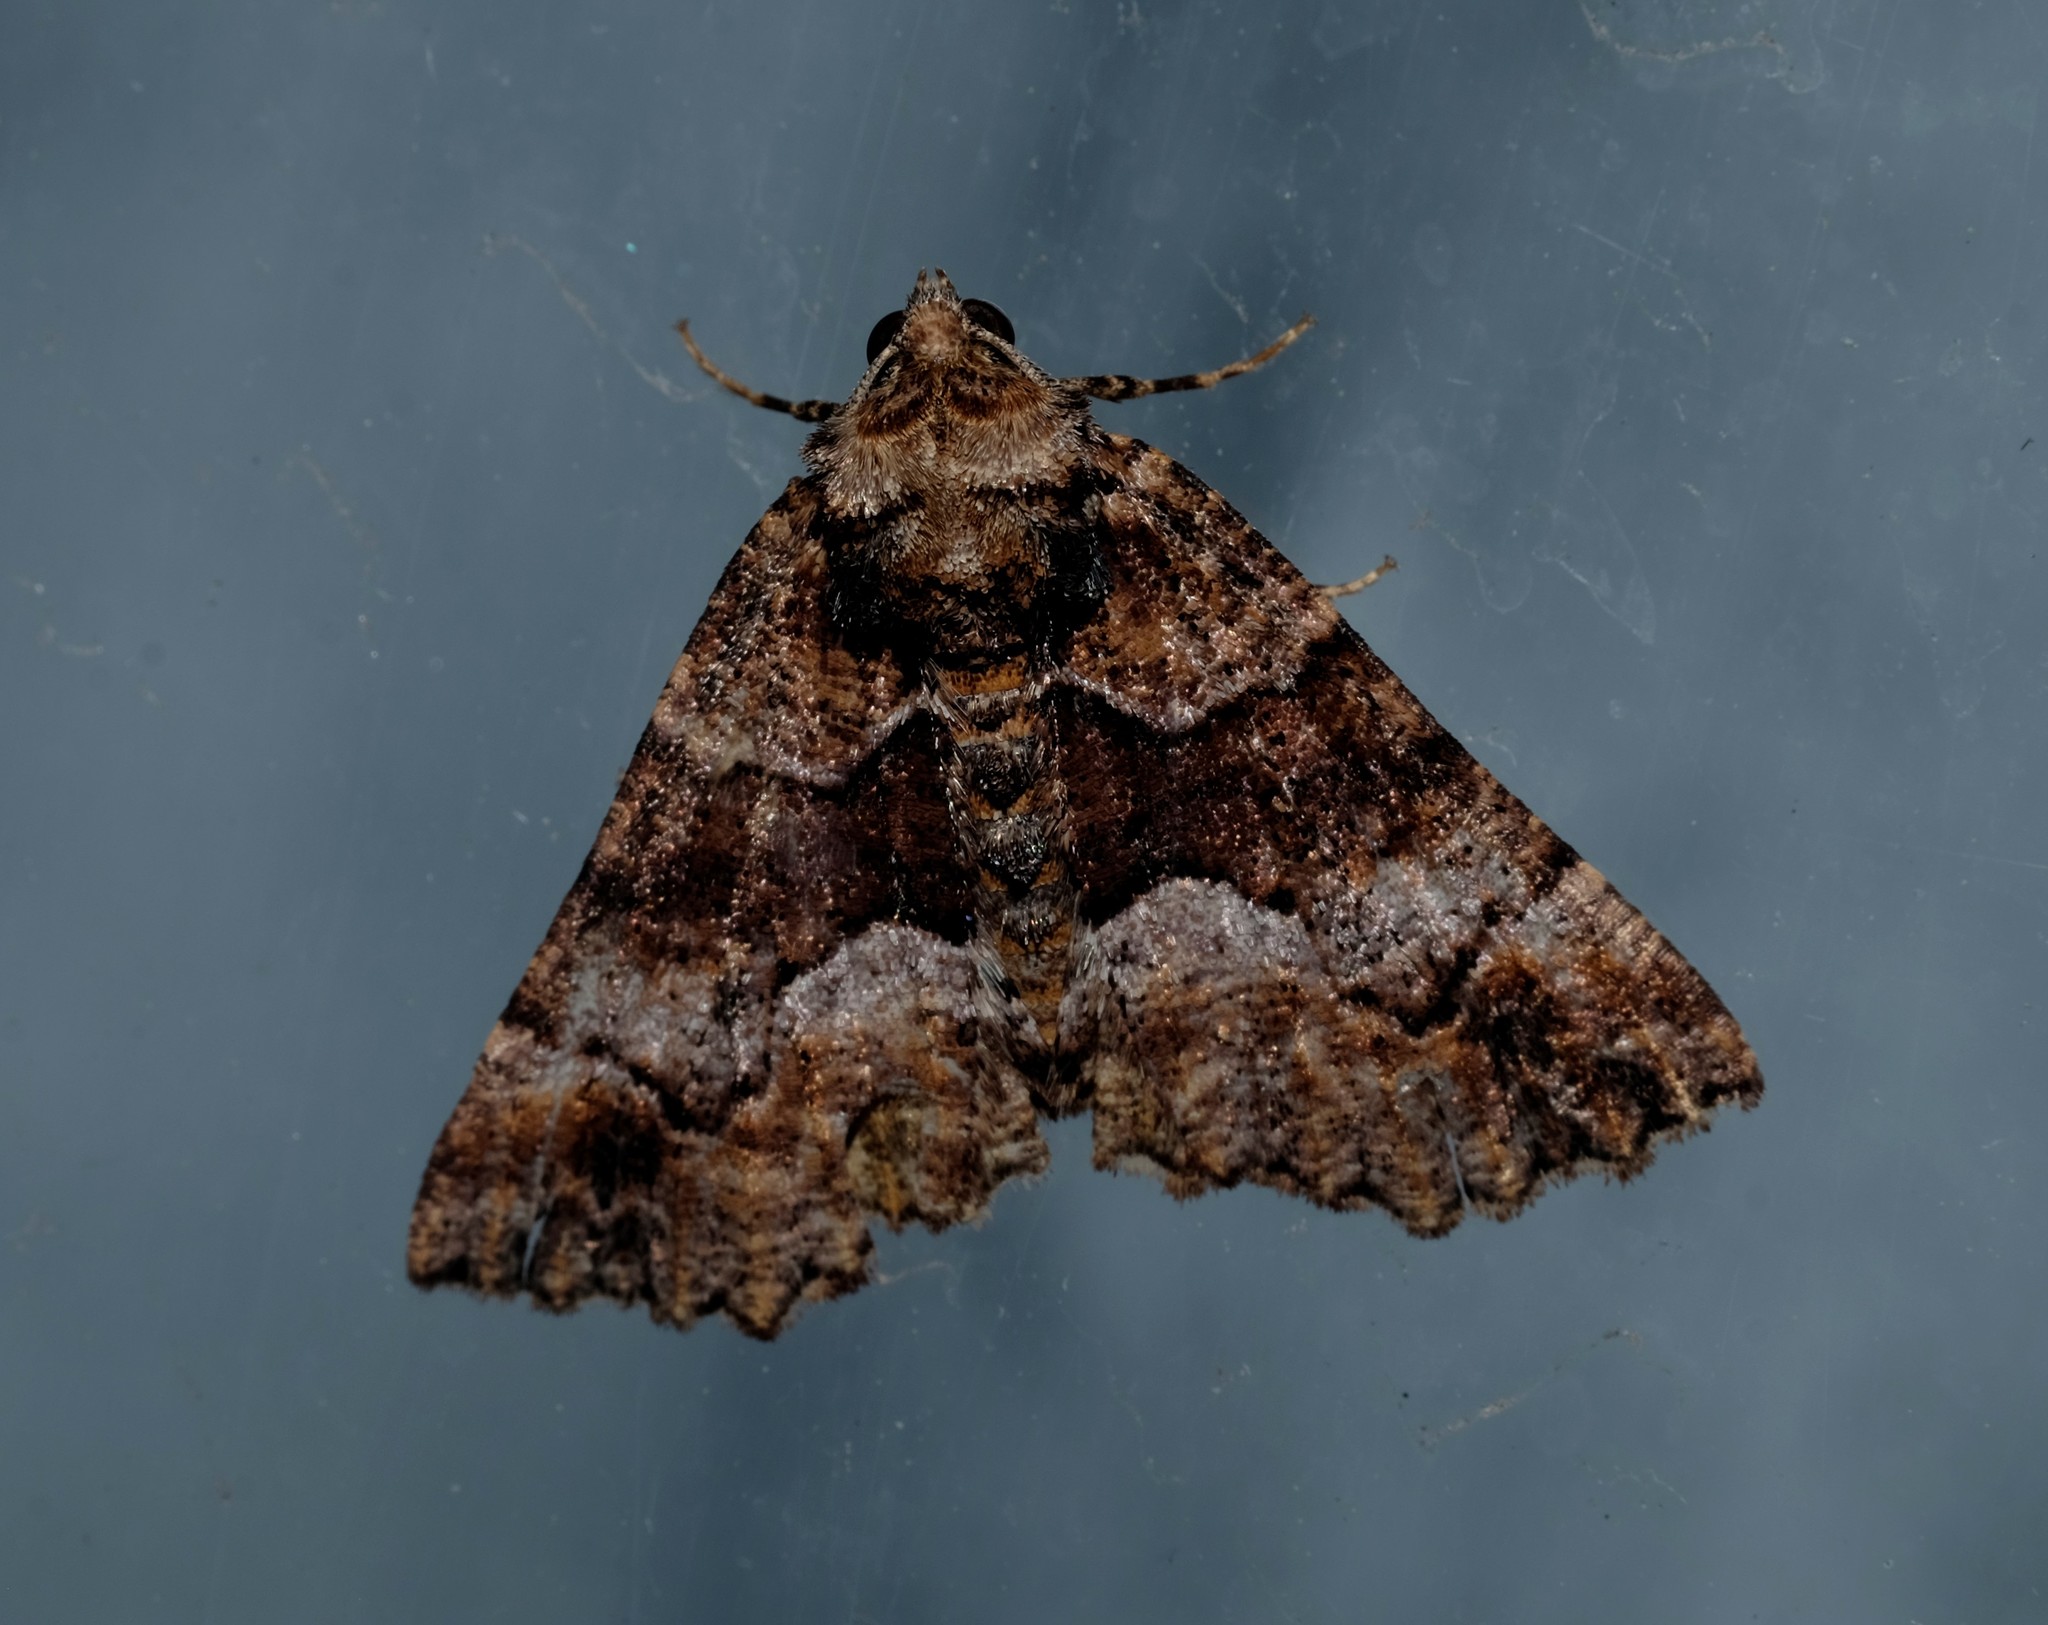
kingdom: Animalia
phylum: Arthropoda
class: Insecta
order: Lepidoptera
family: Geometridae
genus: Gastrina
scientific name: Gastrina cristaria
